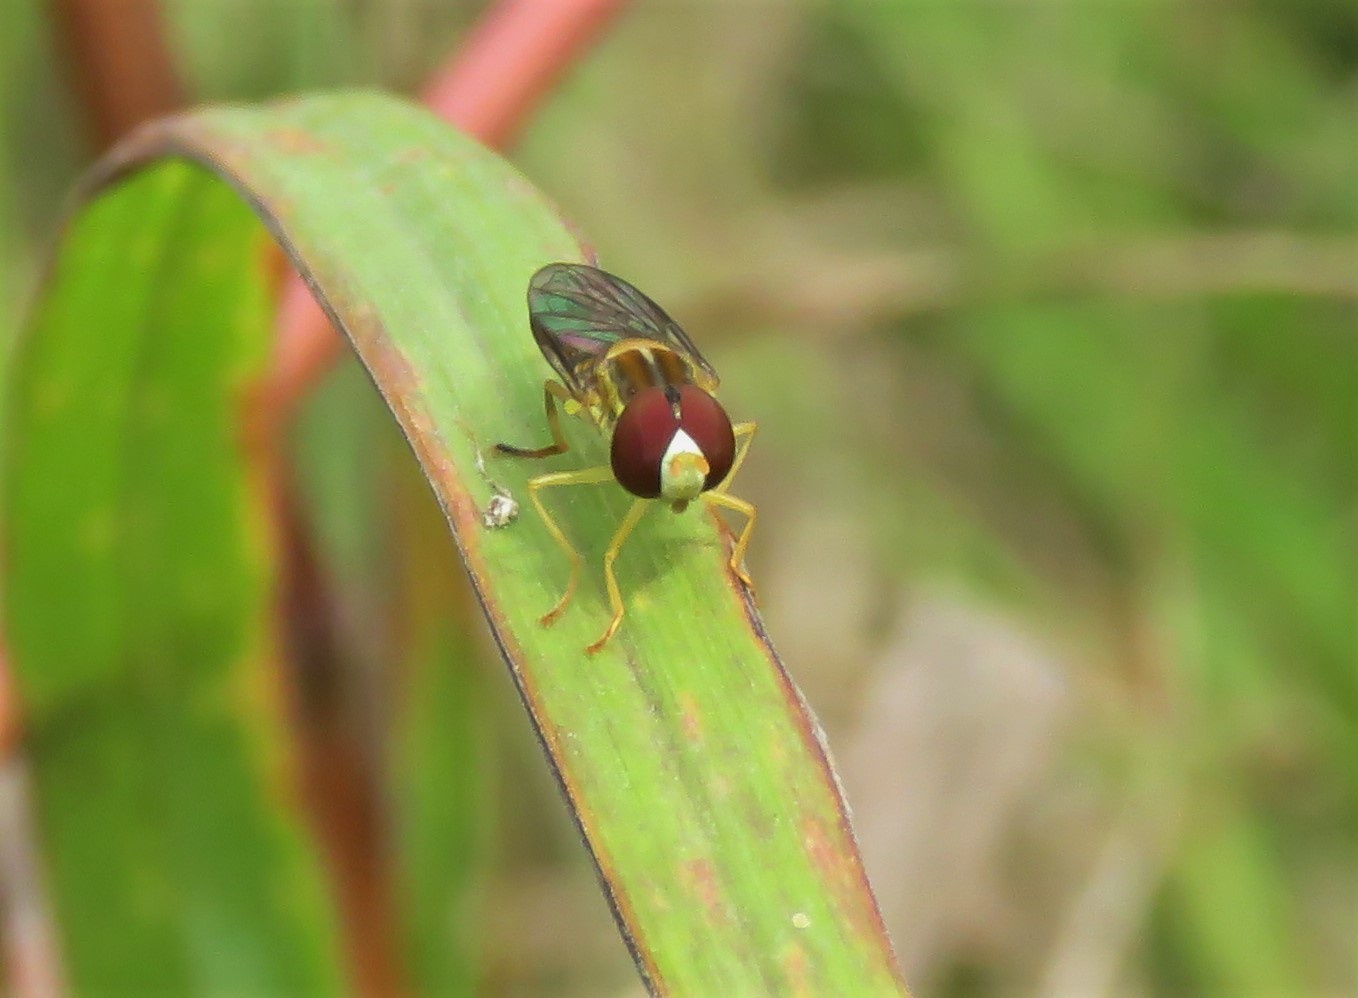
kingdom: Animalia
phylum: Arthropoda
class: Insecta
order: Diptera
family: Syrphidae
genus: Toxomerus
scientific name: Toxomerus politus
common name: Maize calligrapher
